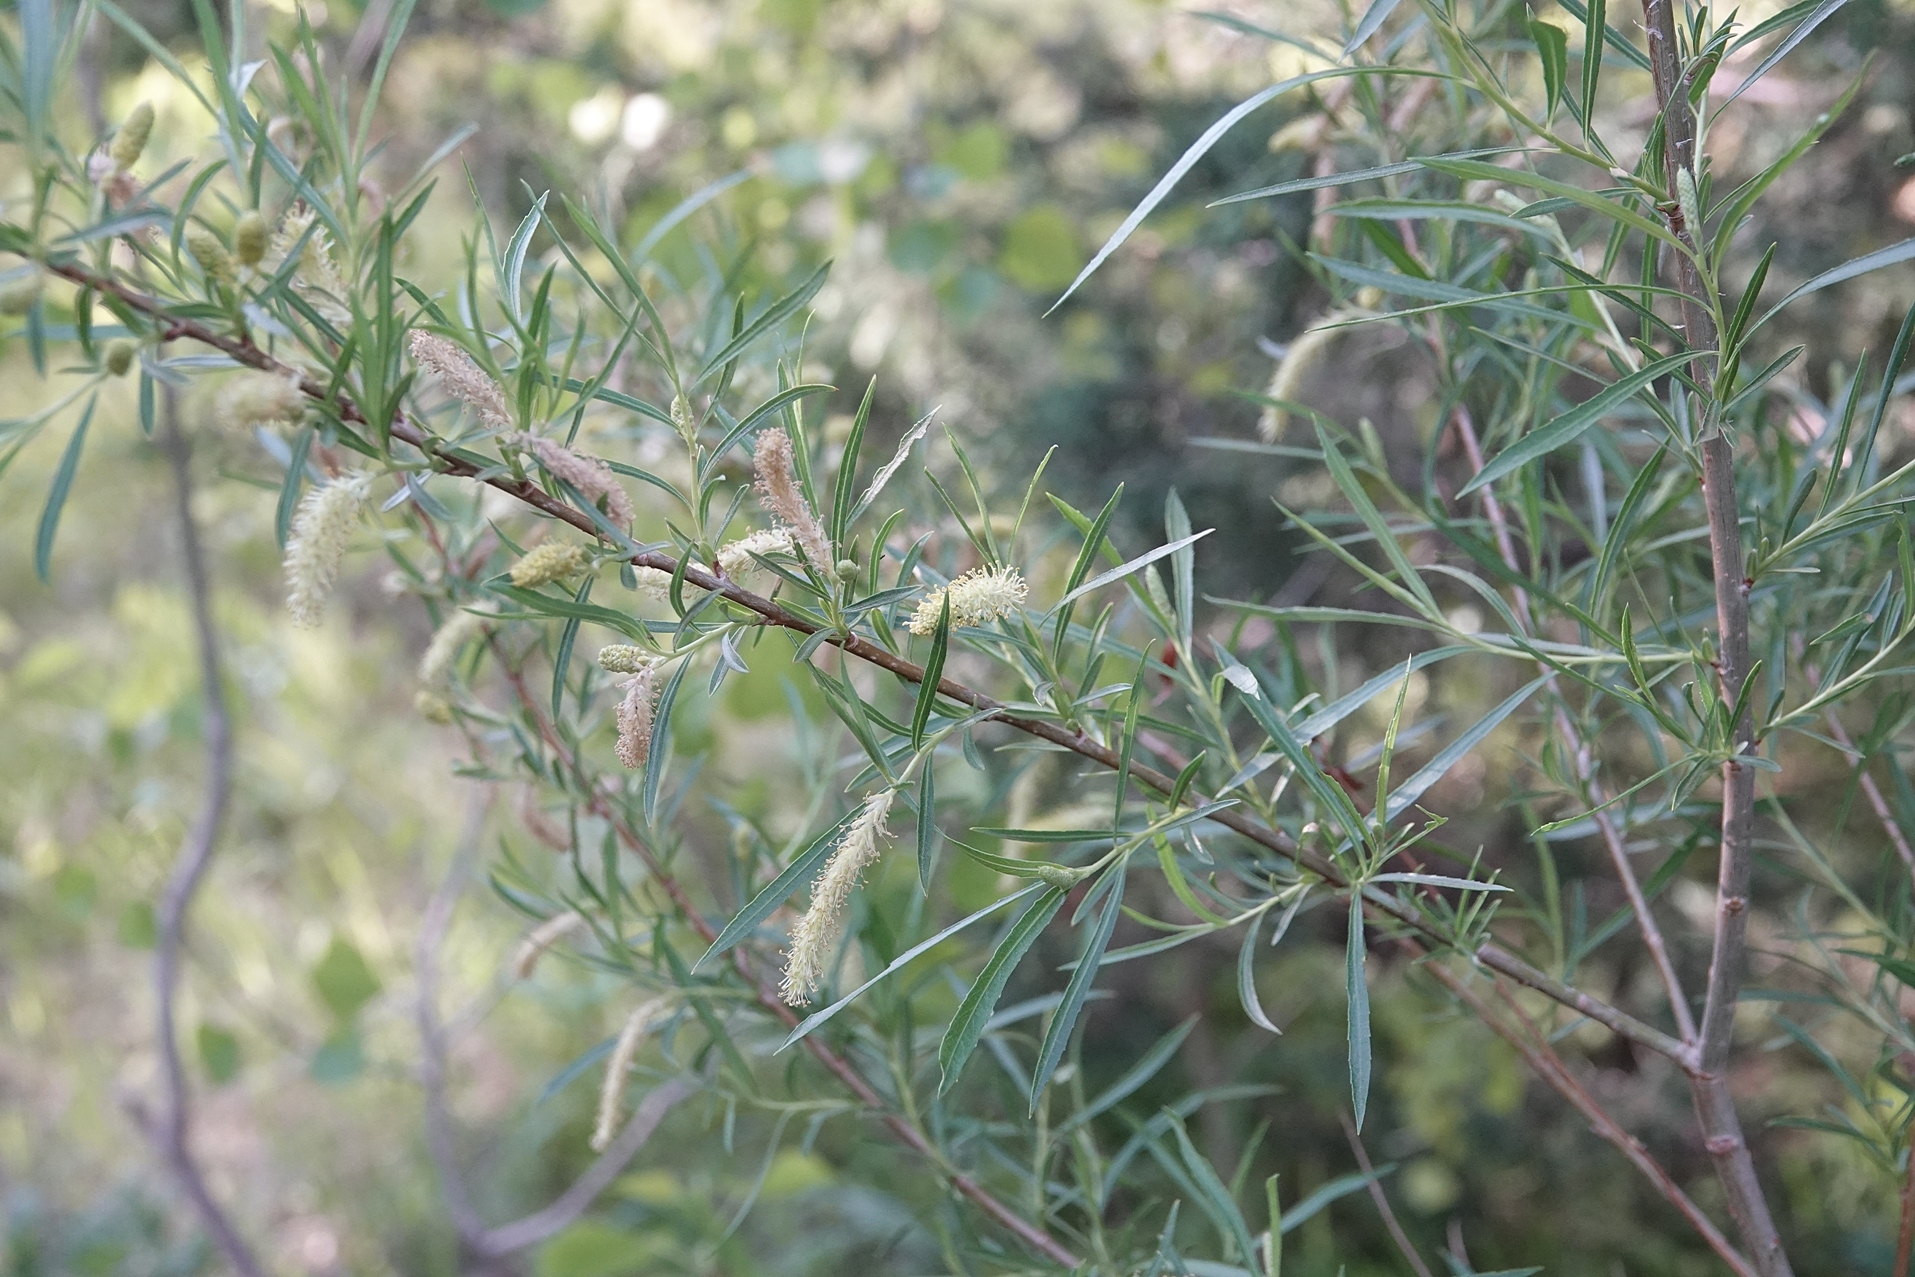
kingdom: Plantae
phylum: Tracheophyta
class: Magnoliopsida
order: Malpighiales
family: Salicaceae
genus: Salix
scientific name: Salix exigua
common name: Coyote willow
